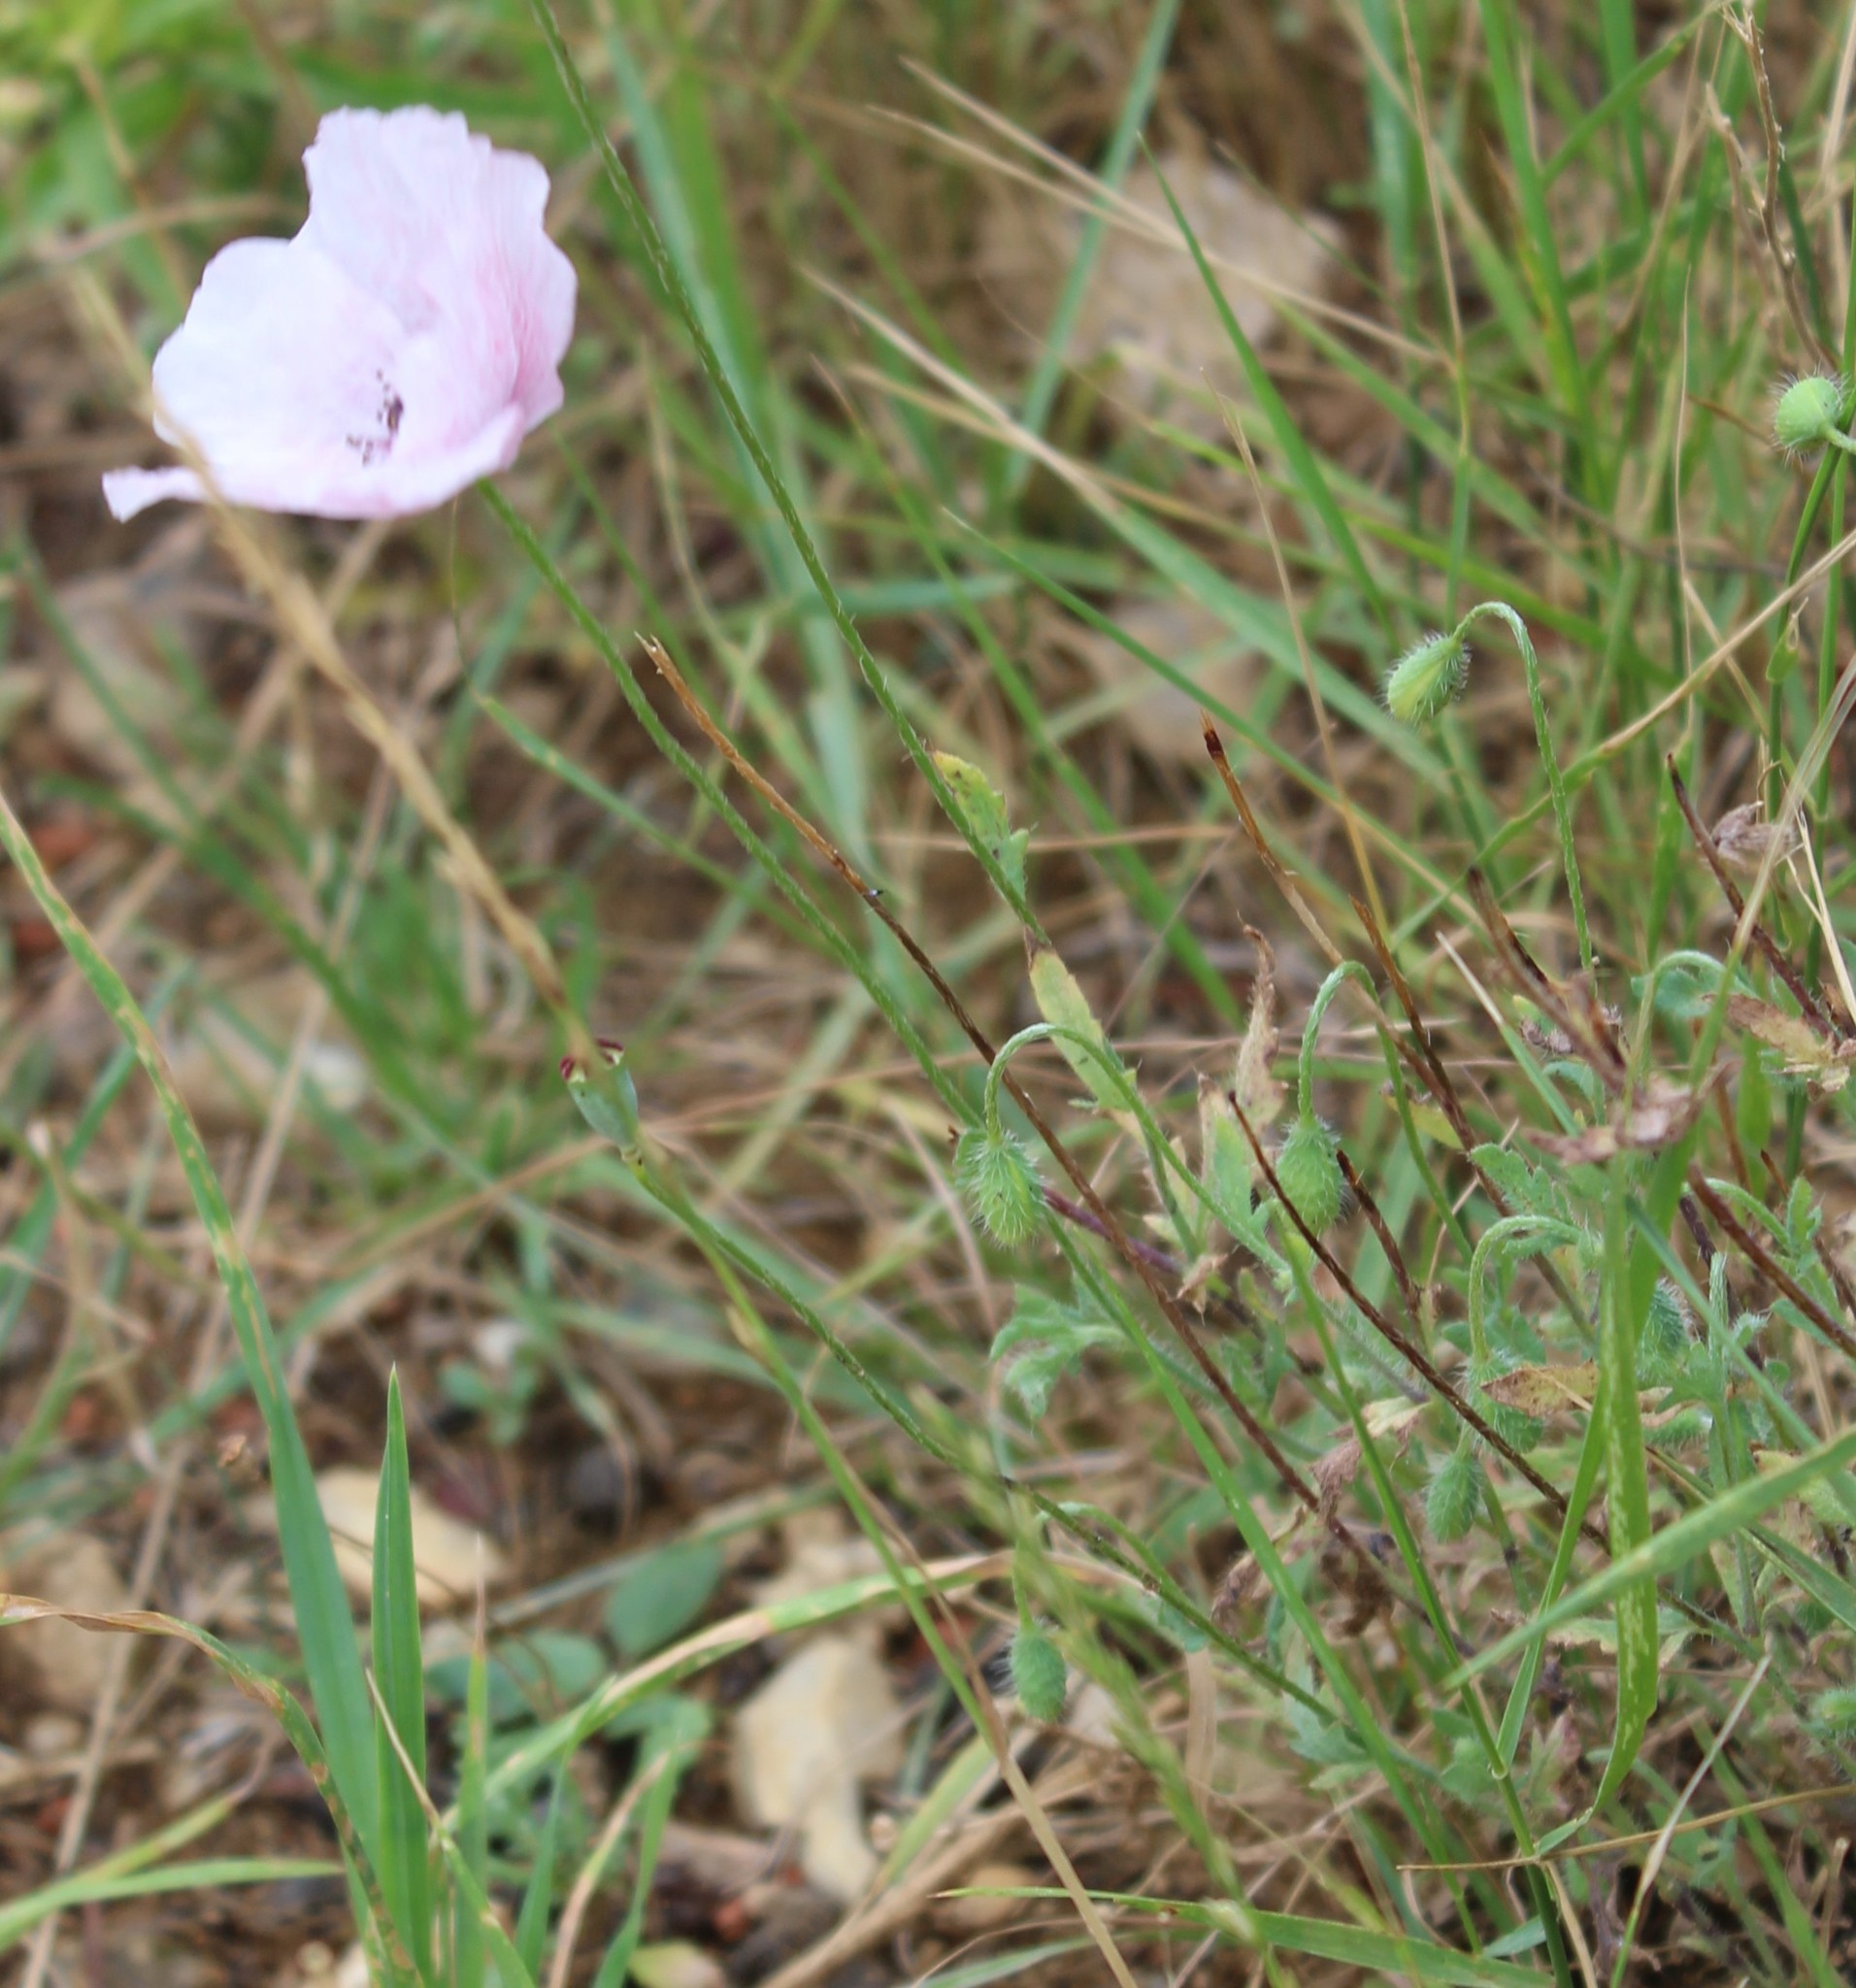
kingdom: Plantae
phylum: Tracheophyta
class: Magnoliopsida
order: Ranunculales
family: Papaveraceae
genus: Papaver
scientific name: Papaver rhoeas
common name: Corn poppy
